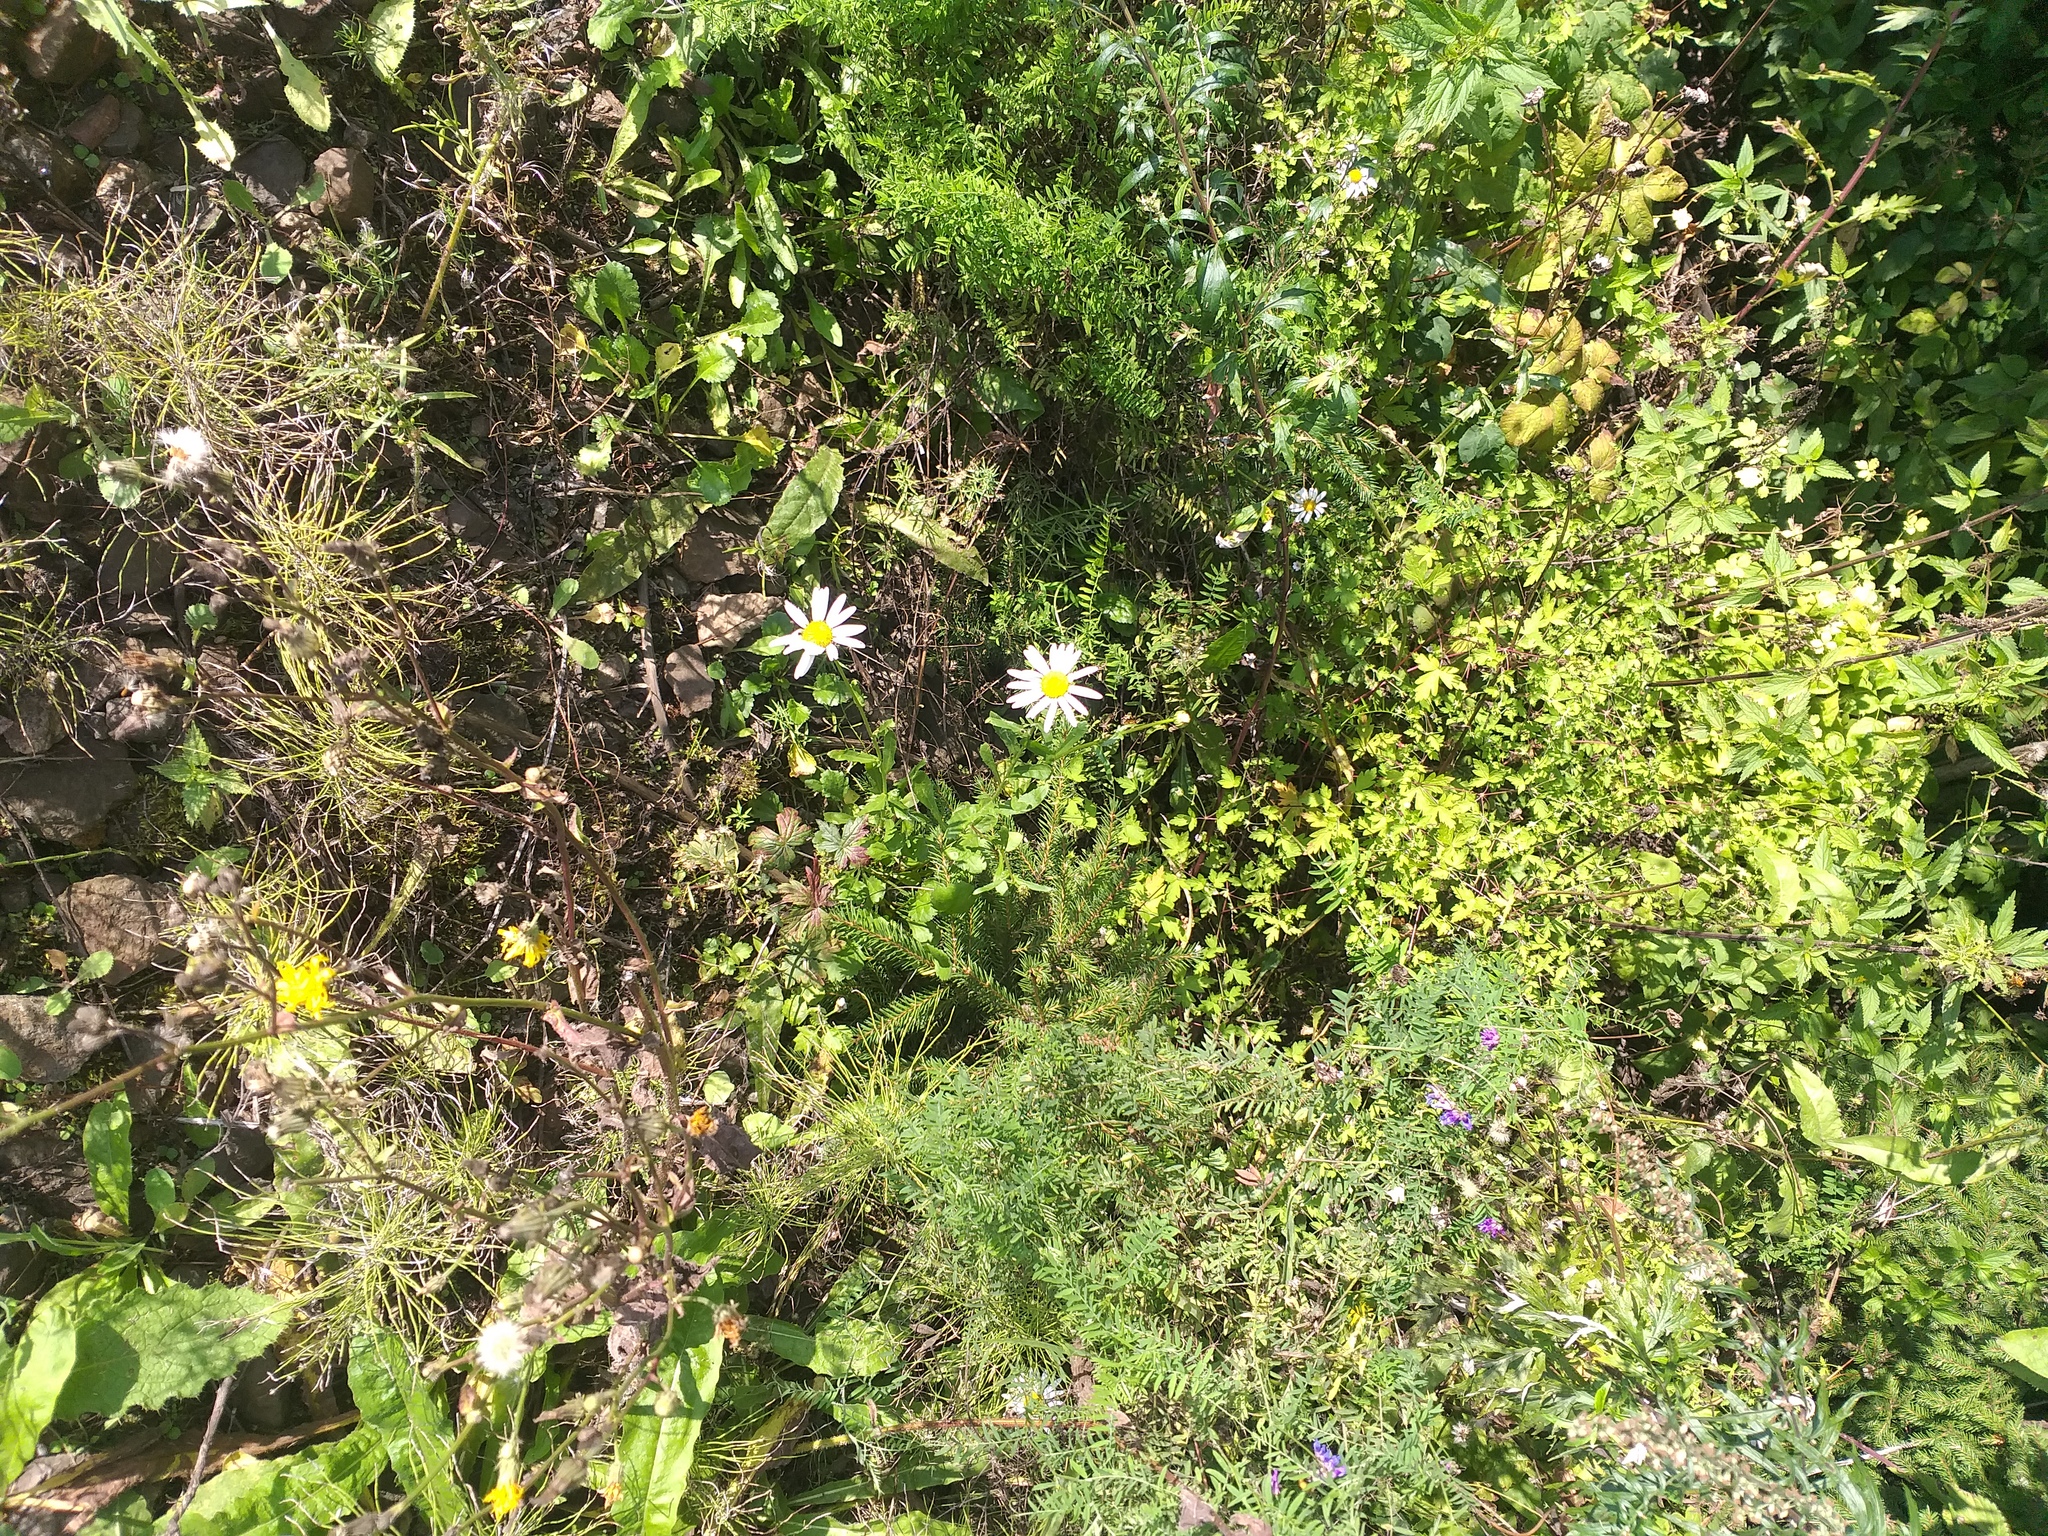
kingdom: Plantae
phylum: Tracheophyta
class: Magnoliopsida
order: Asterales
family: Asteraceae
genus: Leucanthemum
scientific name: Leucanthemum vulgare
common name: Oxeye daisy
